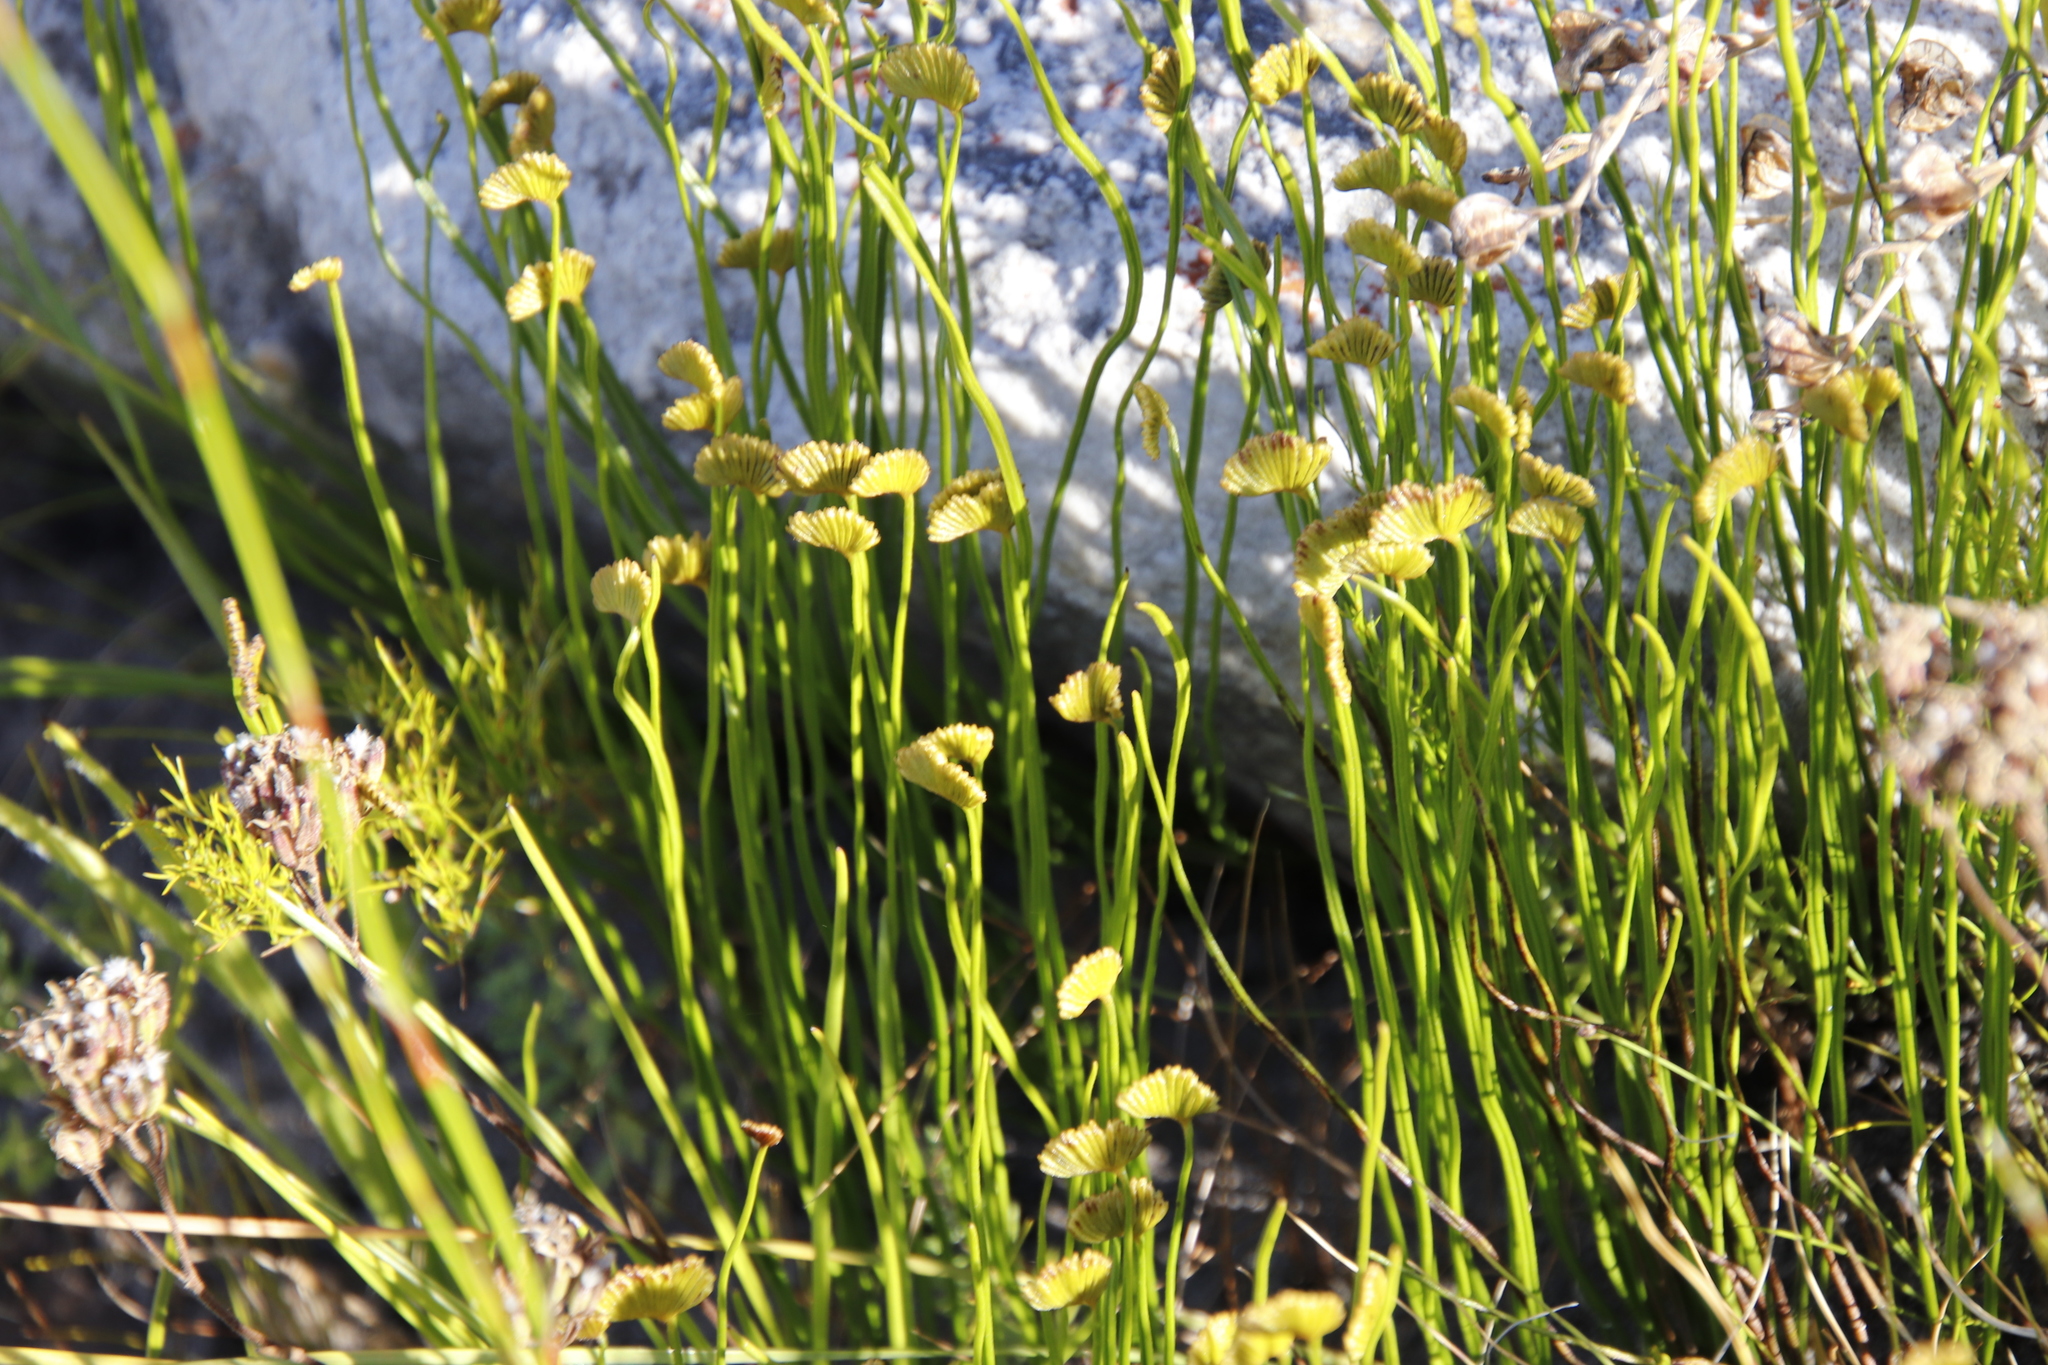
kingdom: Plantae
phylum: Tracheophyta
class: Polypodiopsida
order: Schizaeales
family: Schizaeaceae
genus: Schizaea
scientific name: Schizaea pectinata
